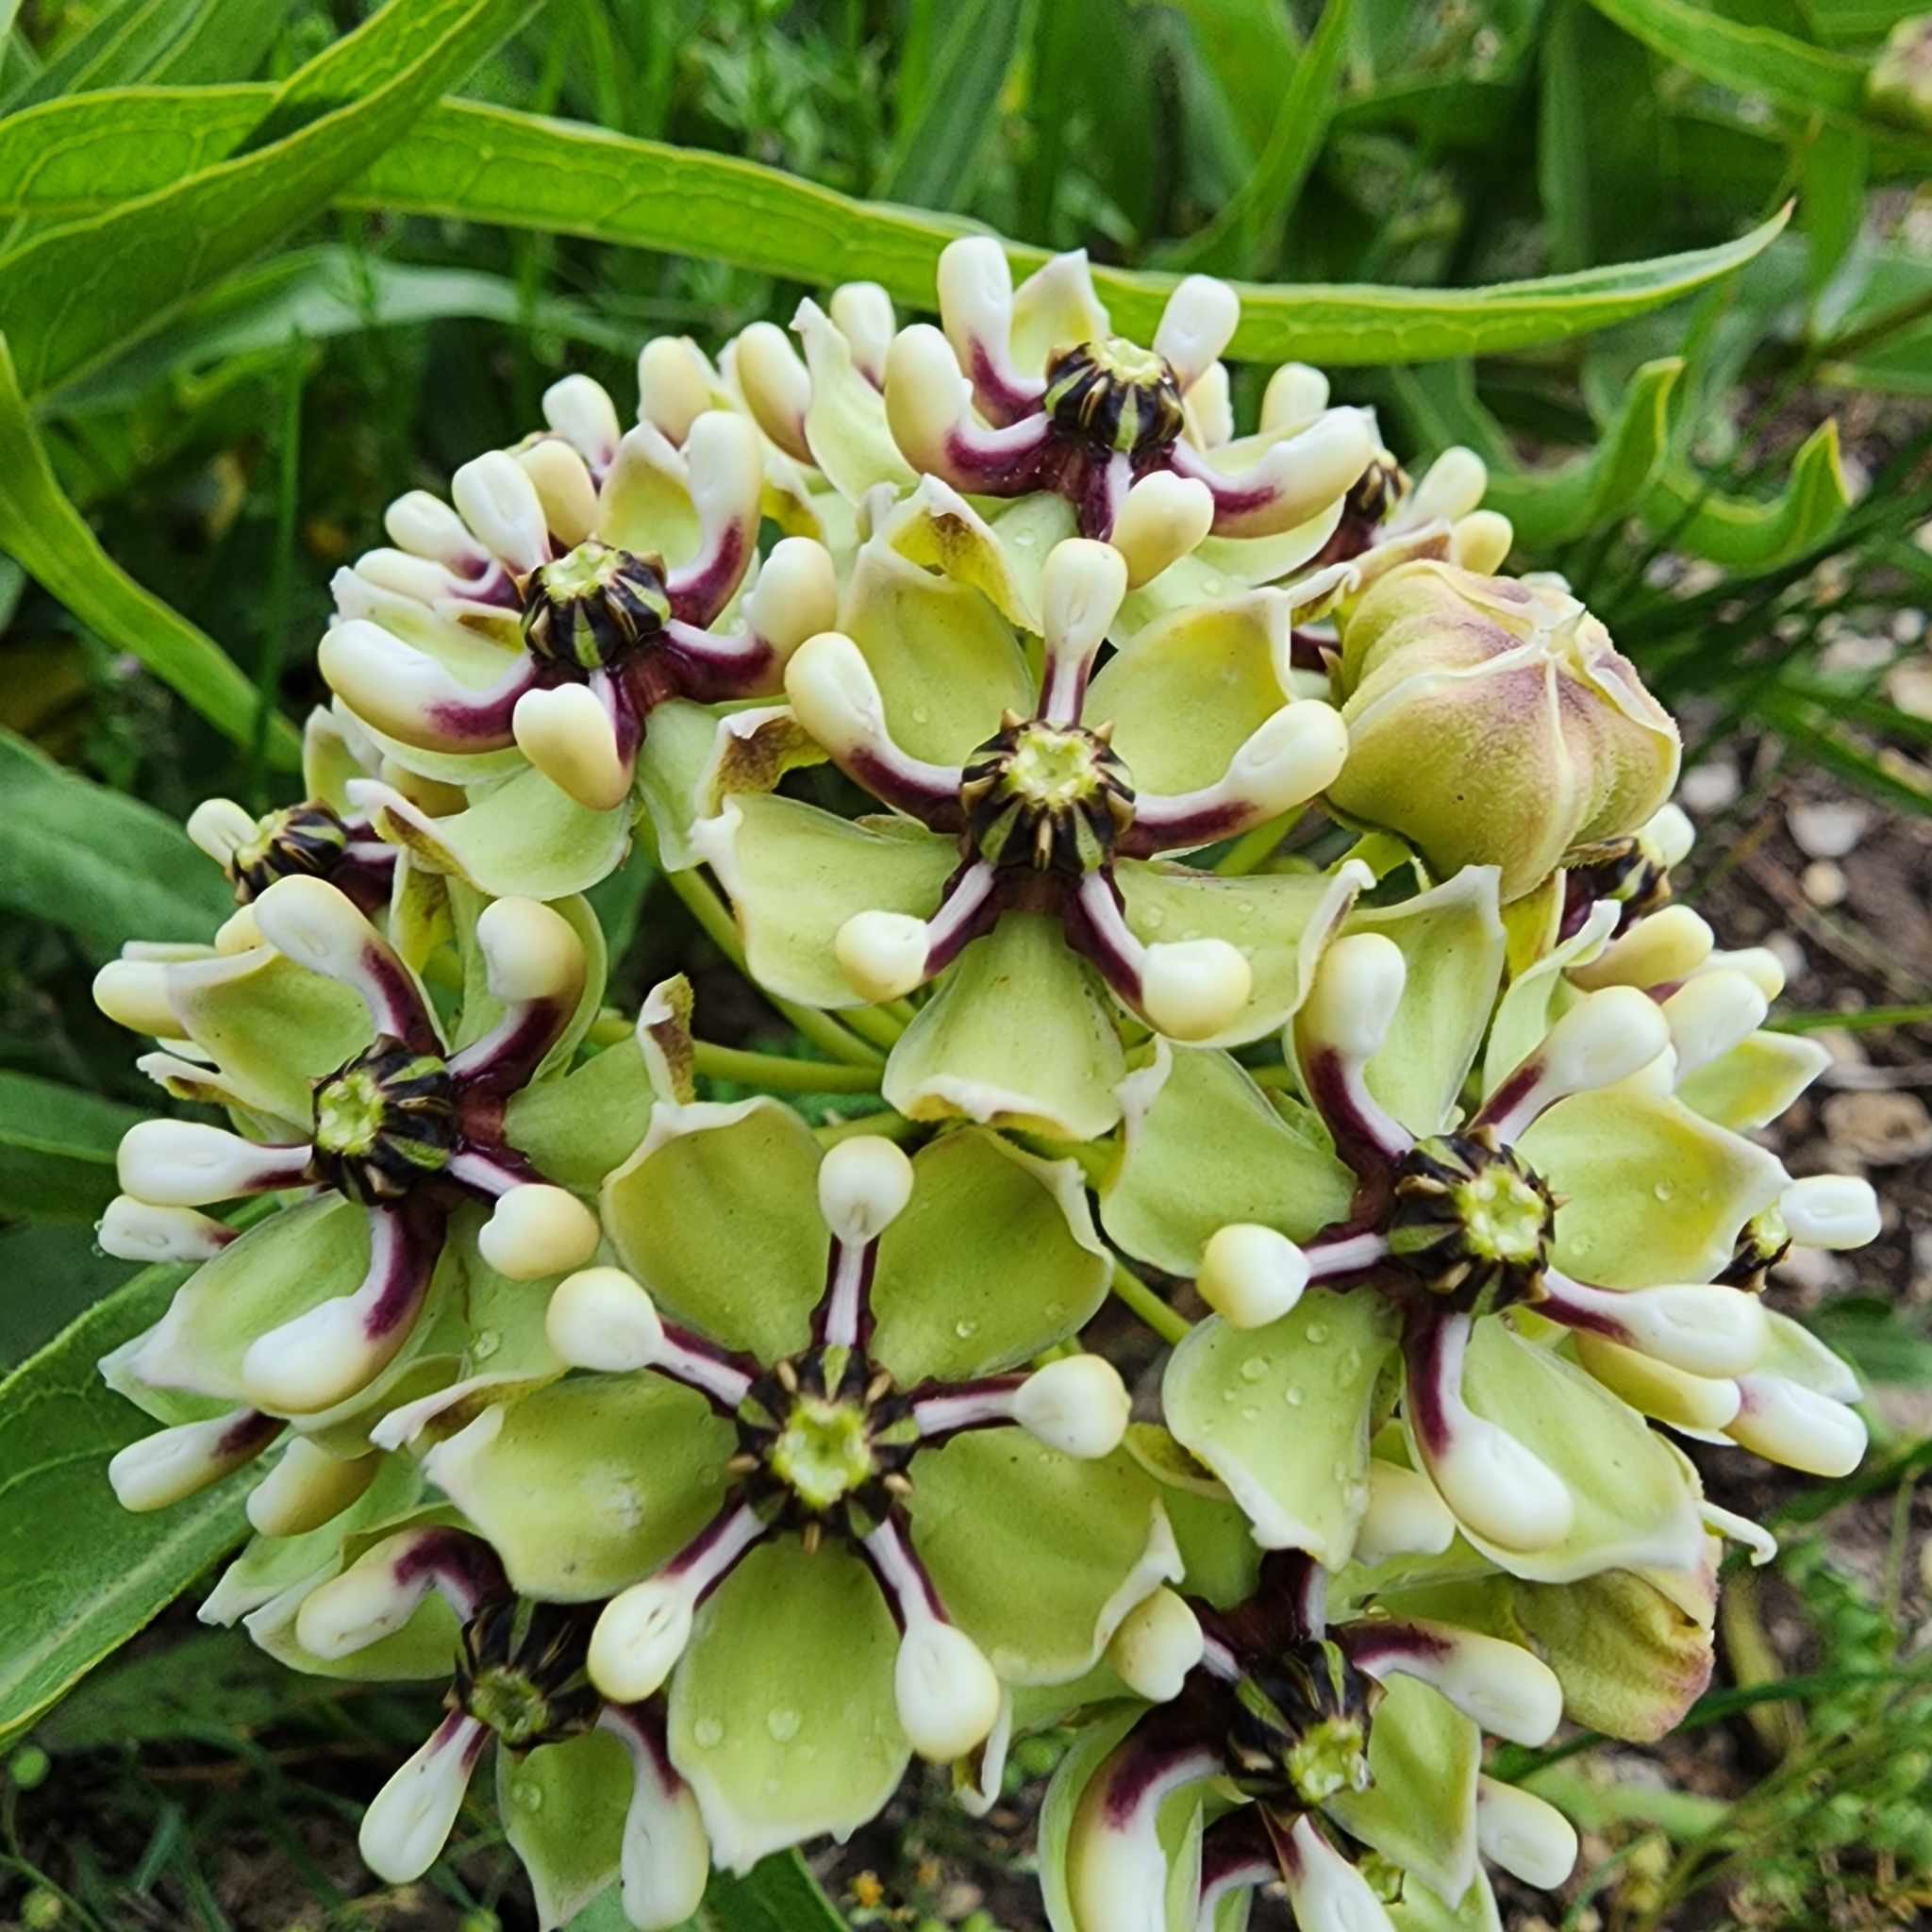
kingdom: Plantae
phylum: Tracheophyta
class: Magnoliopsida
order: Gentianales
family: Apocynaceae
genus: Asclepias
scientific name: Asclepias asperula
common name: Antelope horns
